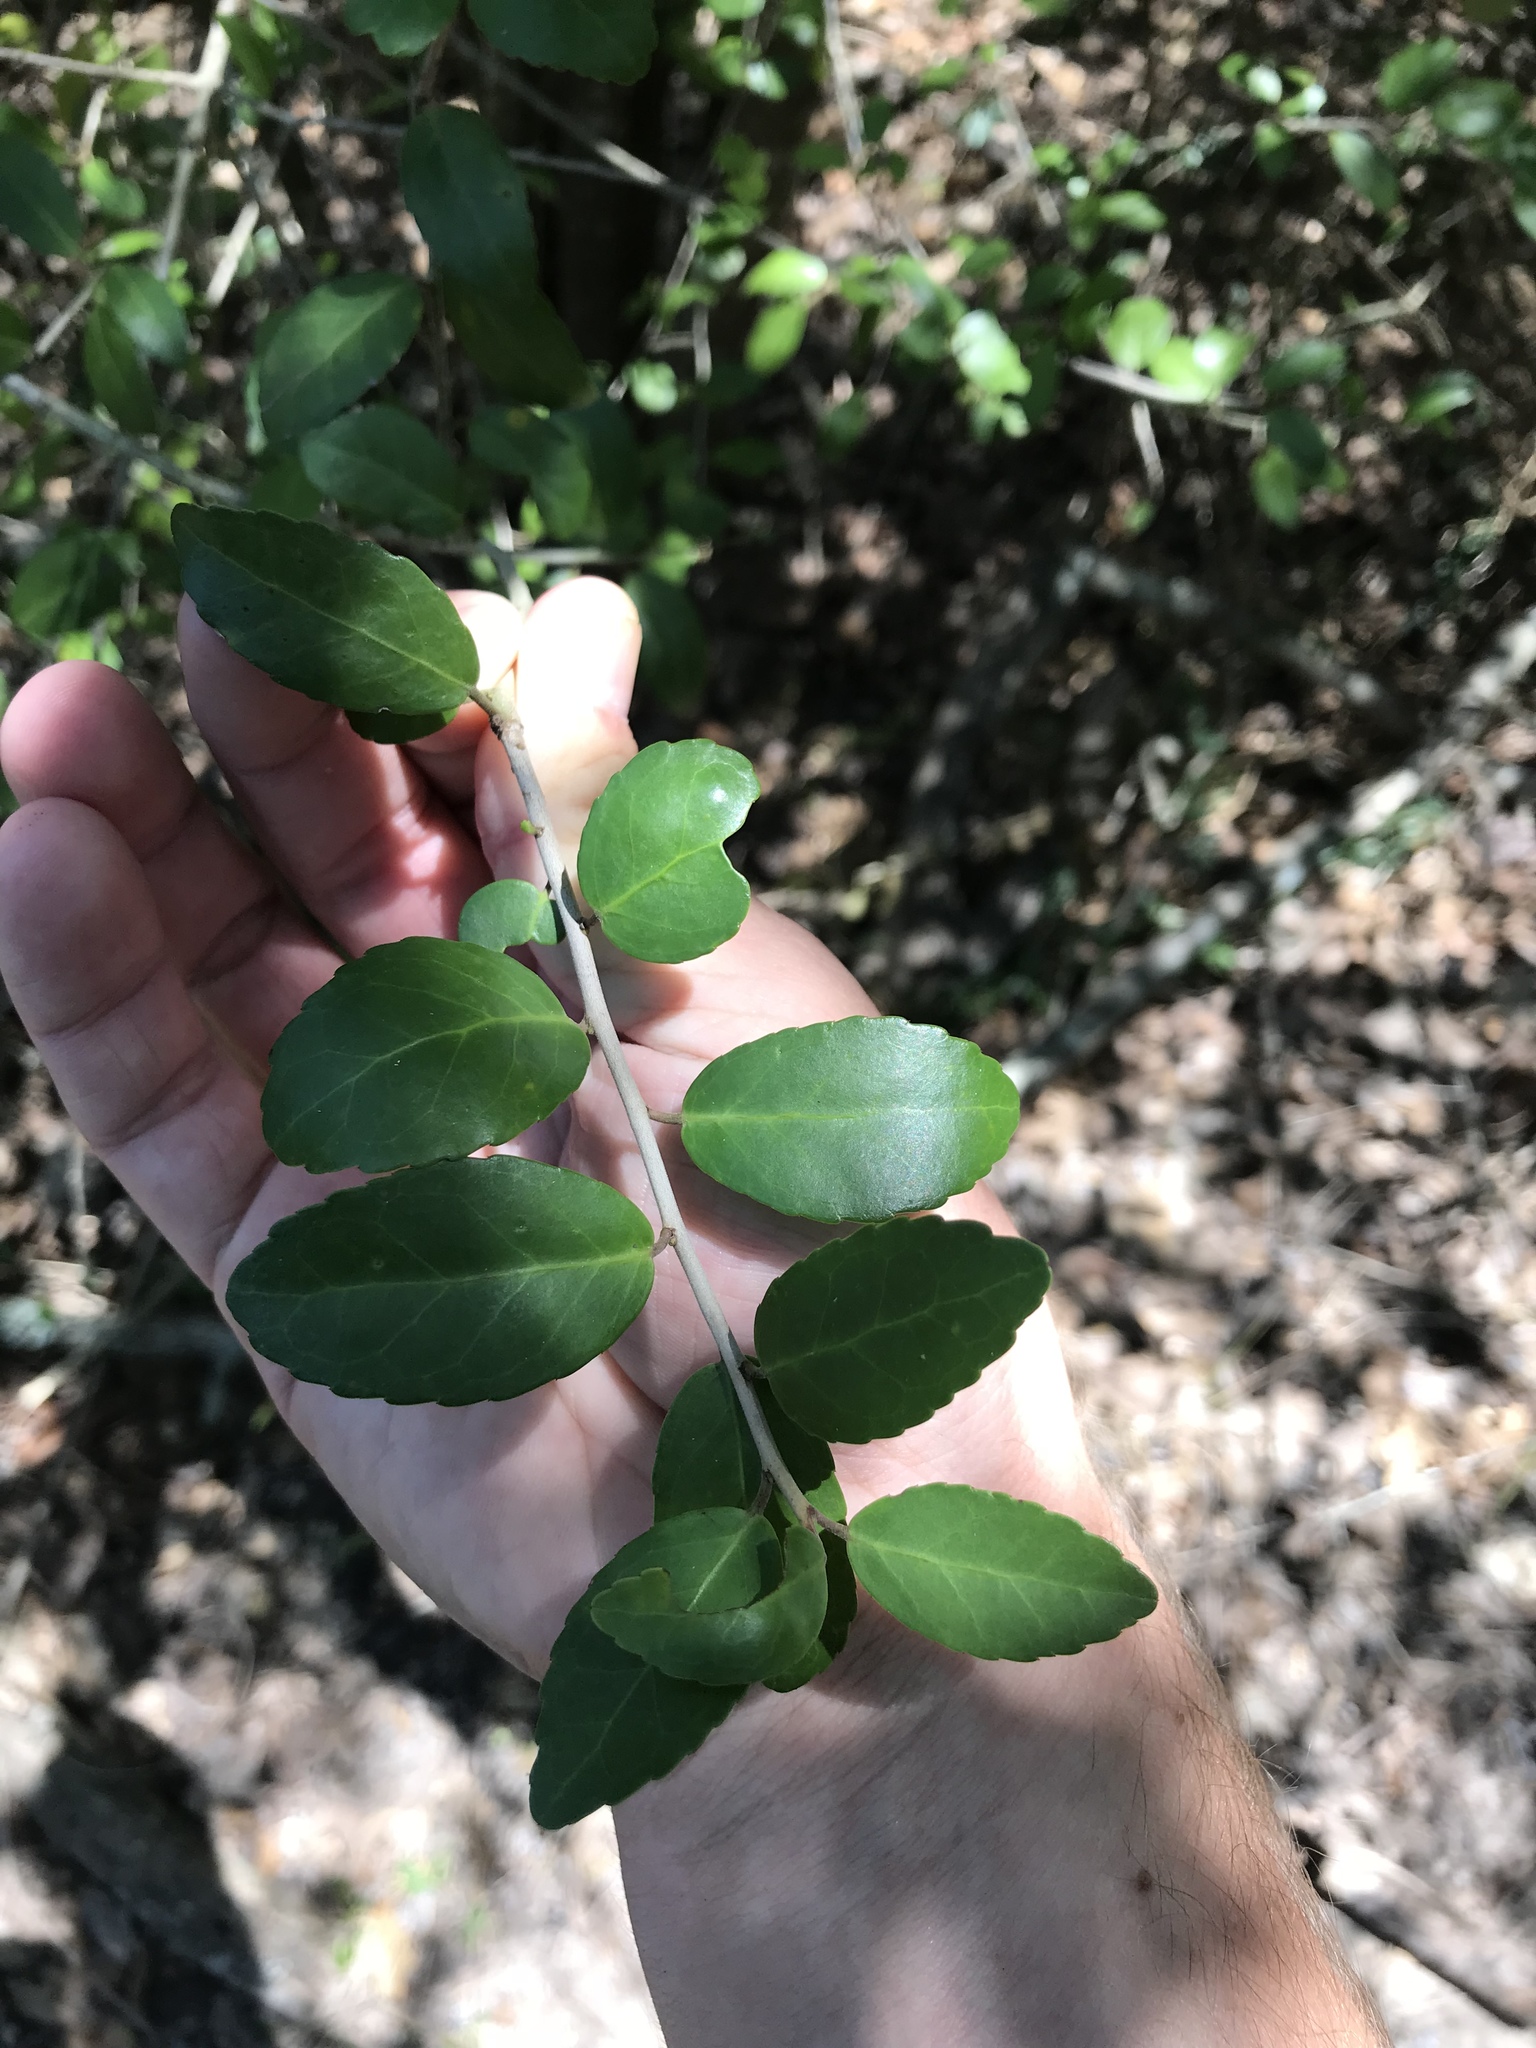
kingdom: Plantae
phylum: Tracheophyta
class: Magnoliopsida
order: Aquifoliales
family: Aquifoliaceae
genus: Ilex
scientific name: Ilex vomitoria
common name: Yaupon holly
